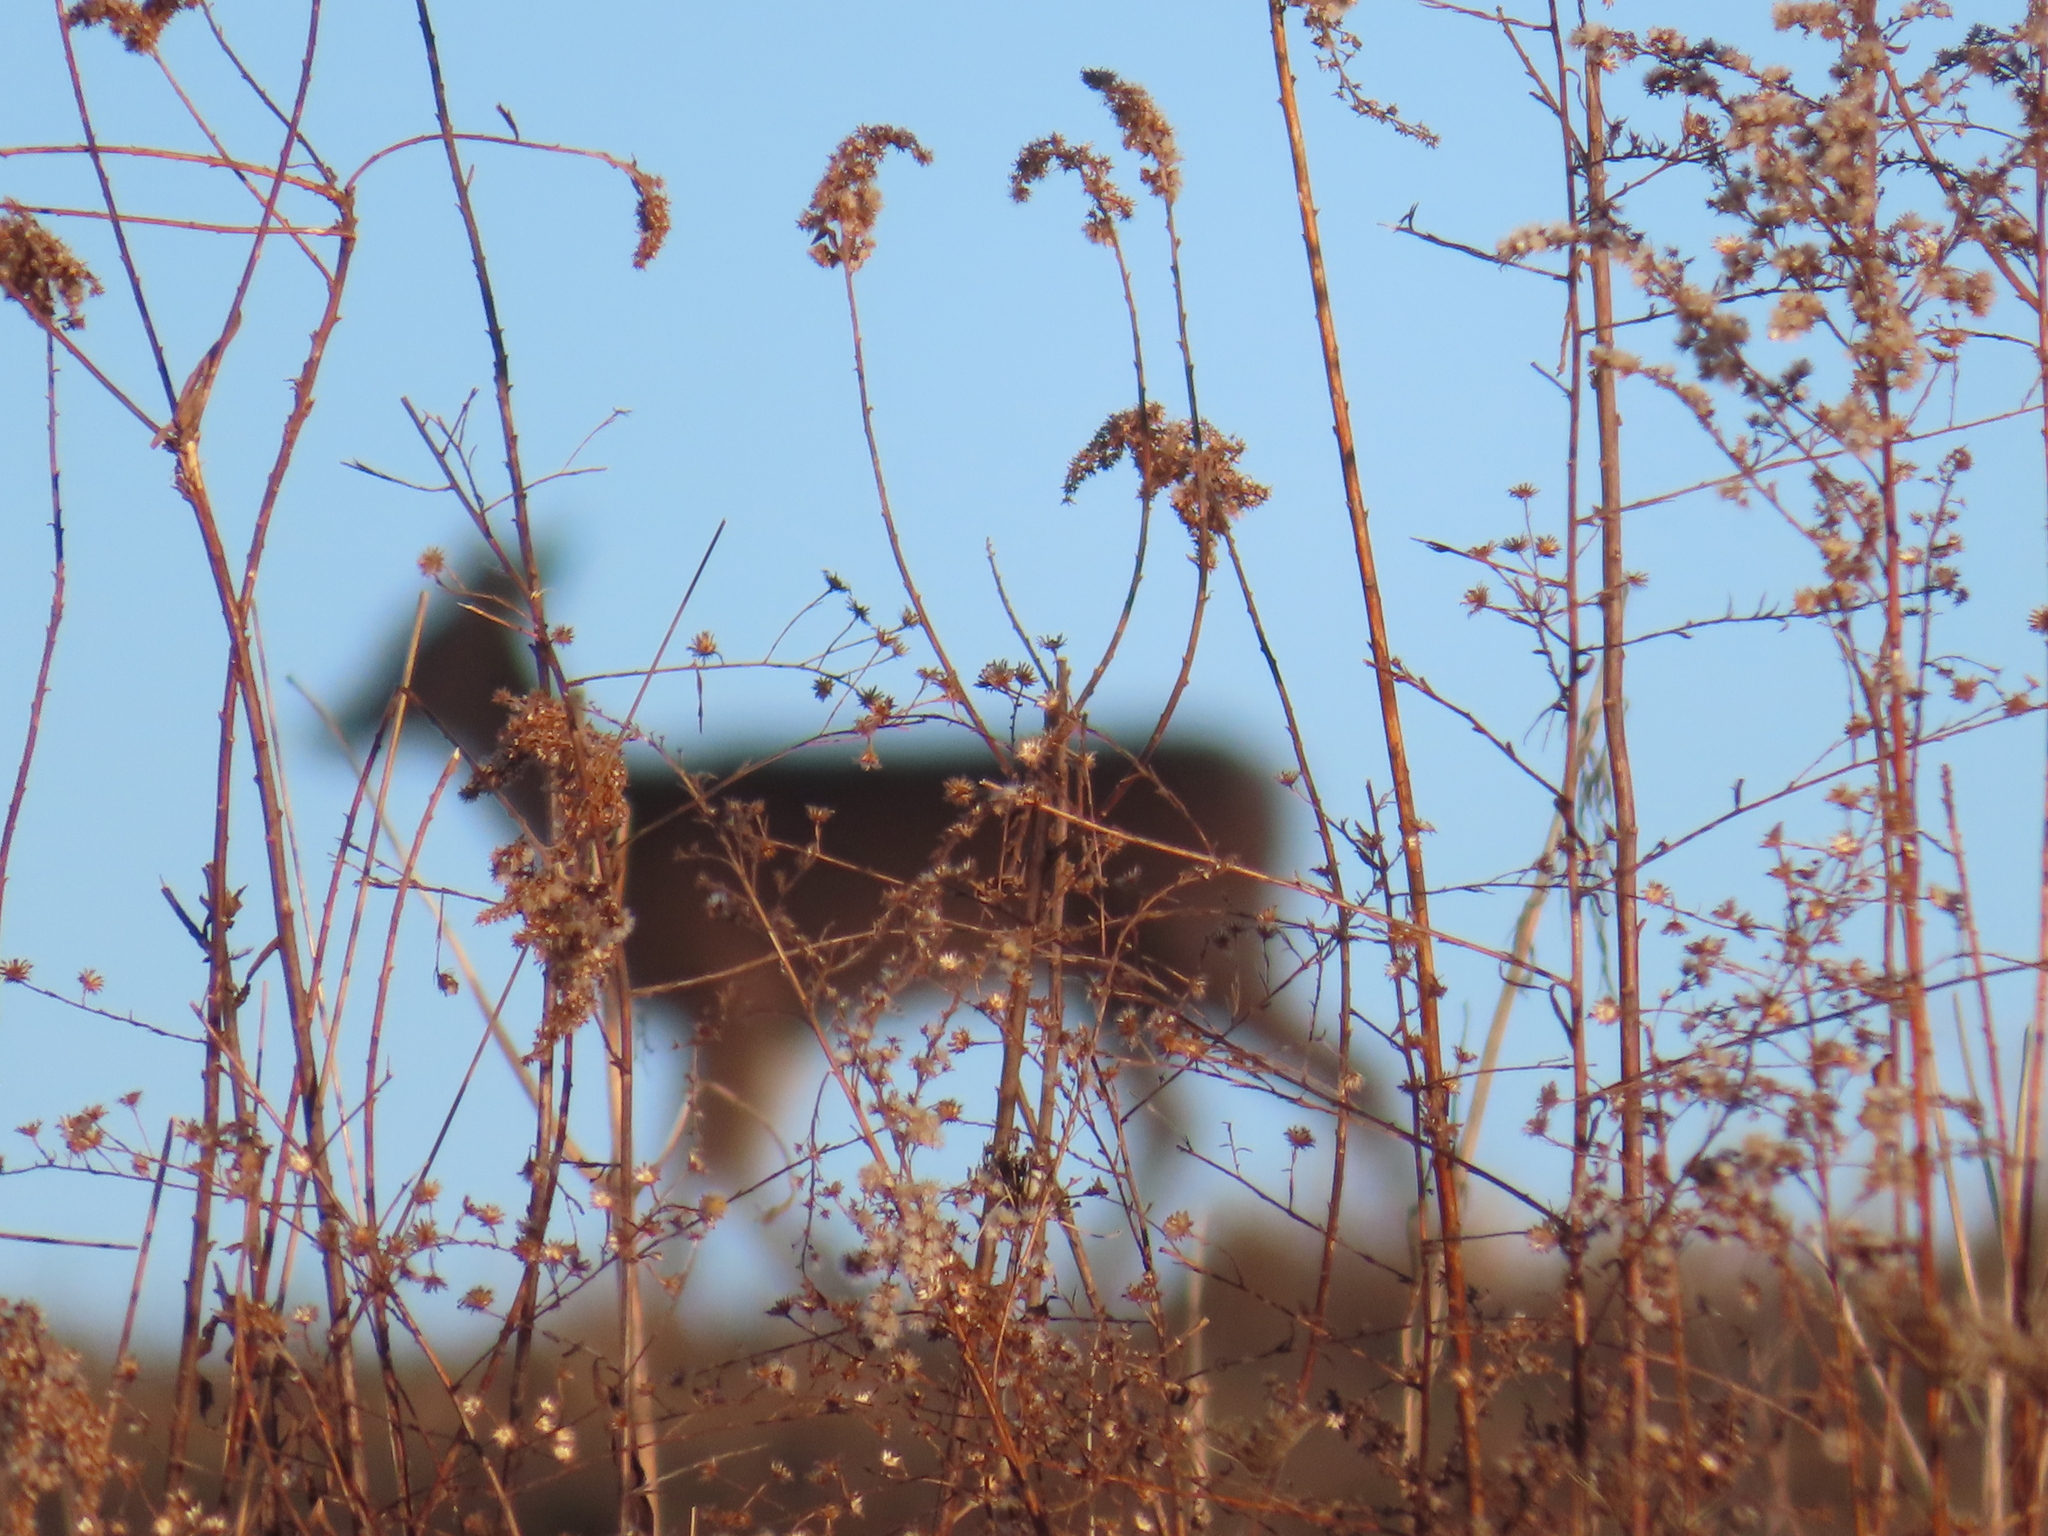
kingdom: Animalia
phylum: Chordata
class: Mammalia
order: Artiodactyla
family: Cervidae
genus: Odocoileus
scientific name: Odocoileus virginianus
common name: White-tailed deer
